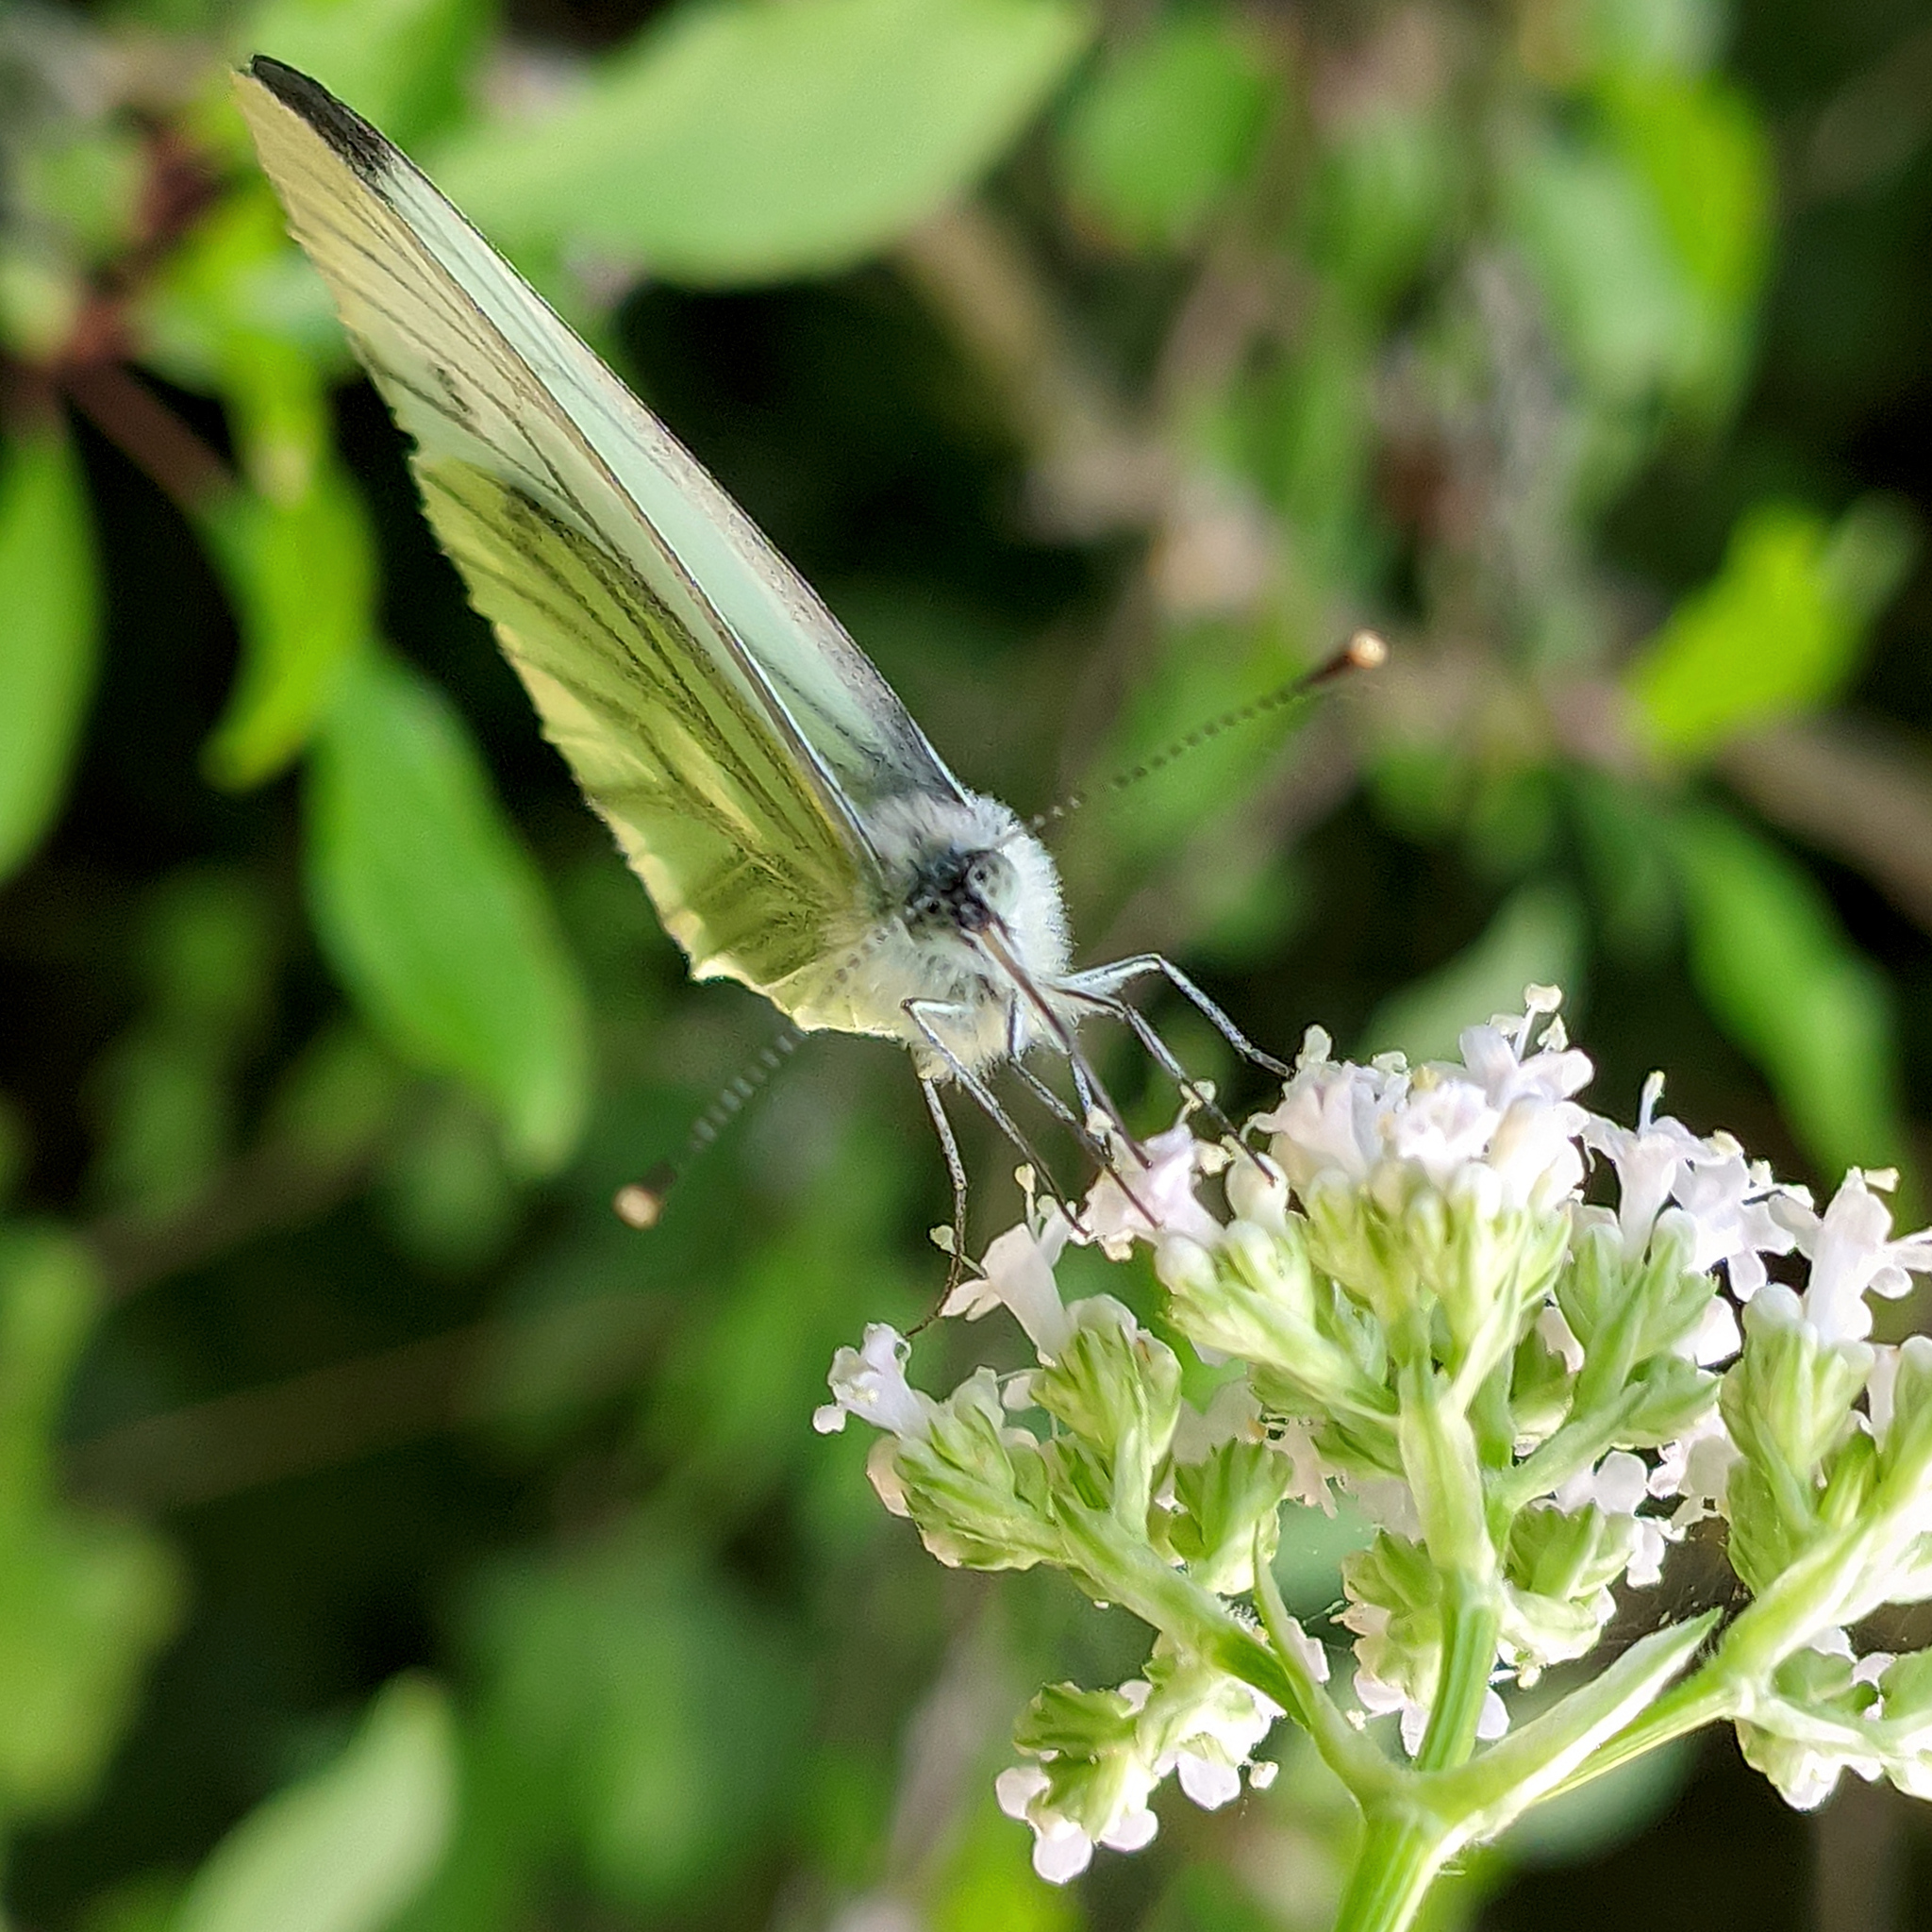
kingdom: Animalia
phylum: Arthropoda
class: Insecta
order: Lepidoptera
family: Pieridae
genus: Pieris
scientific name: Pieris napi
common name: Green-veined white
